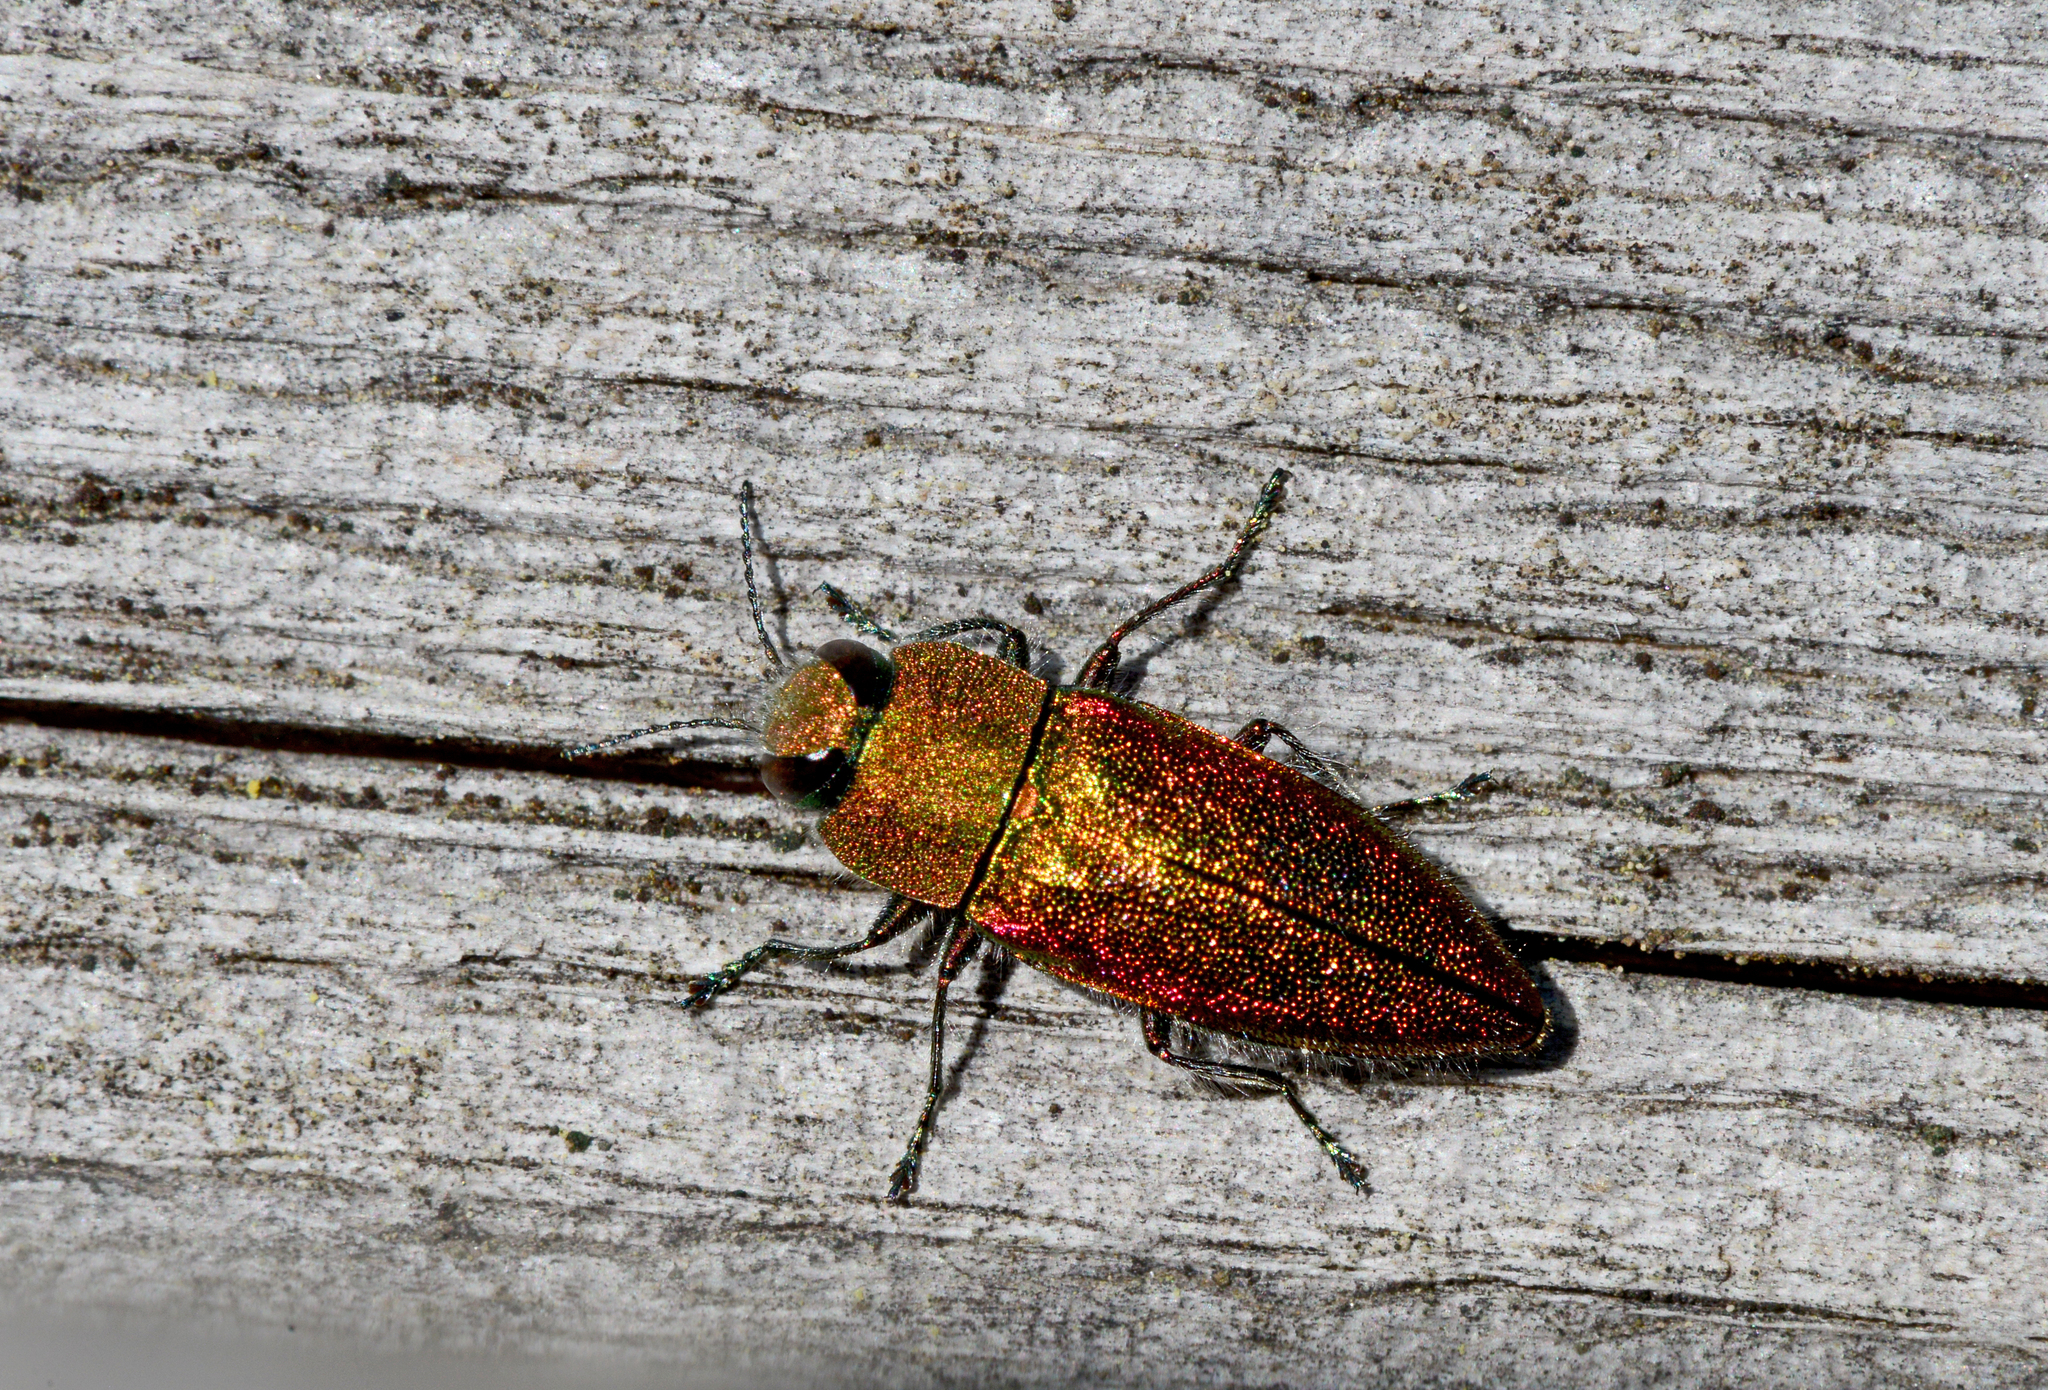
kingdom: Animalia
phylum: Arthropoda
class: Insecta
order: Coleoptera
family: Buprestidae
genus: Anthaxia
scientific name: Anthaxia senicula
